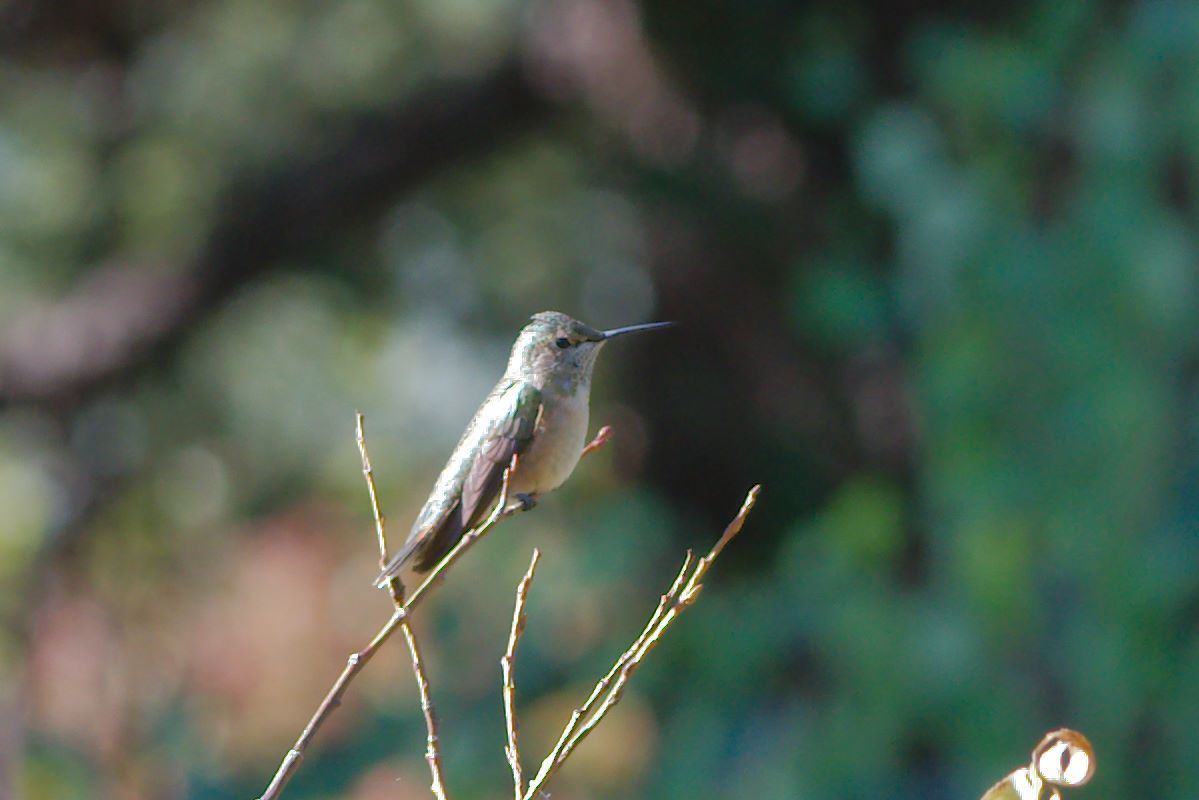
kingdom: Animalia
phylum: Chordata
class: Aves
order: Apodiformes
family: Trochilidae
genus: Selasphorus
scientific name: Selasphorus platycercus
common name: Broad-tailed hummingbird
